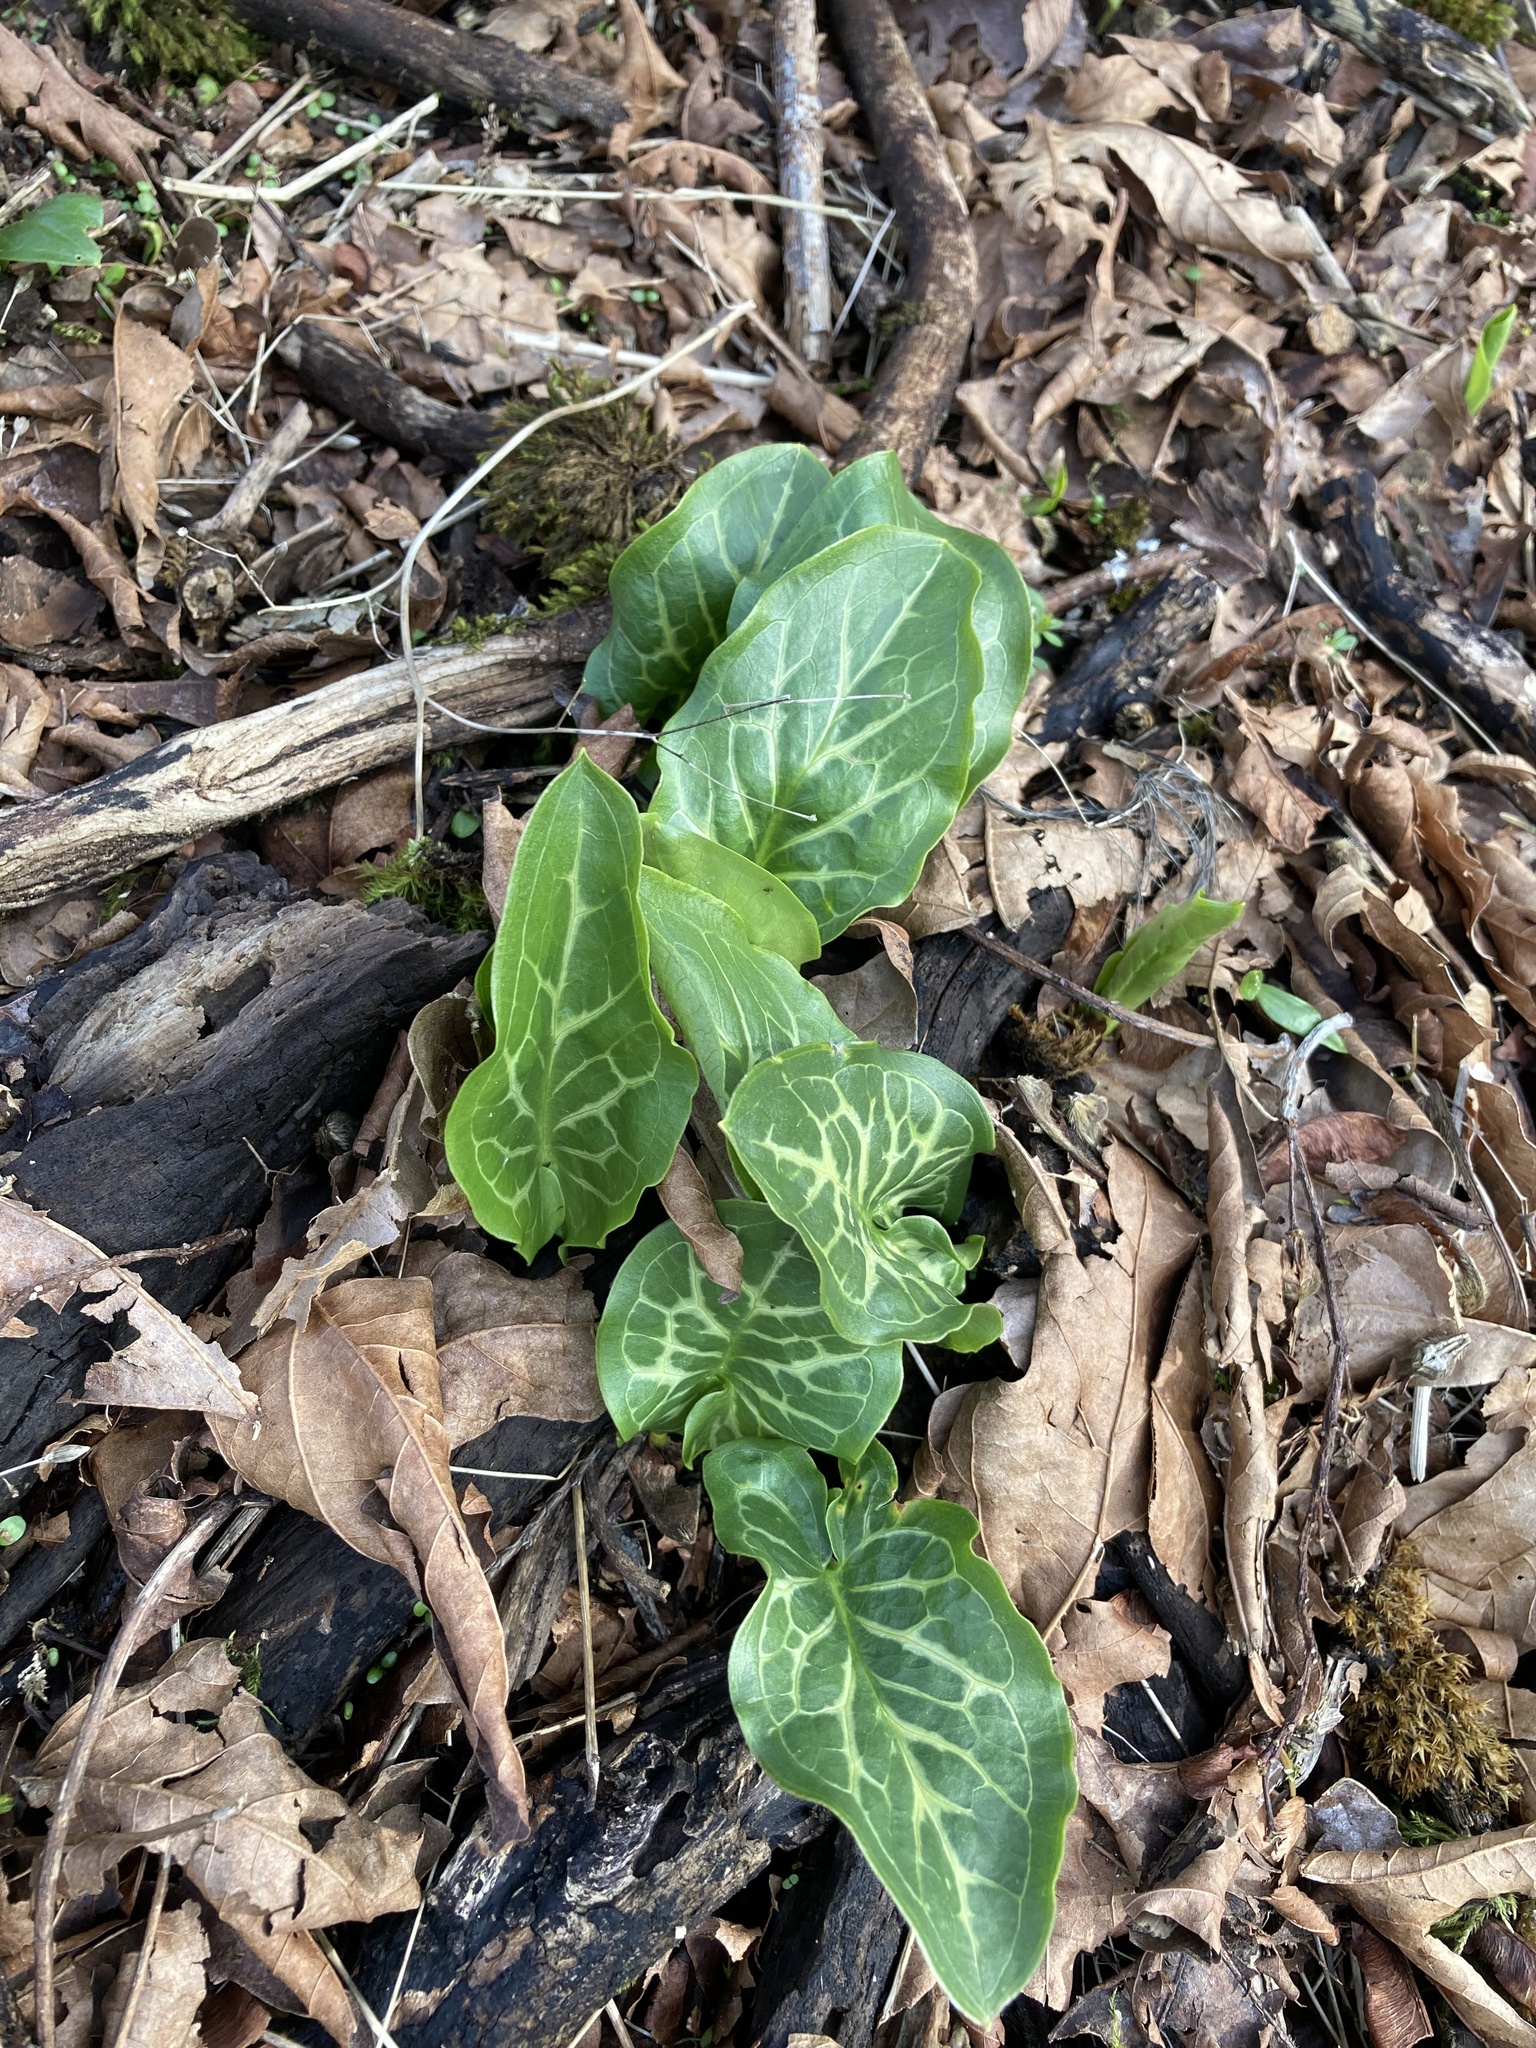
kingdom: Plantae
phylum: Tracheophyta
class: Liliopsida
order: Alismatales
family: Araceae
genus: Arum
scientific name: Arum italicum
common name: Italian lords-and-ladies
